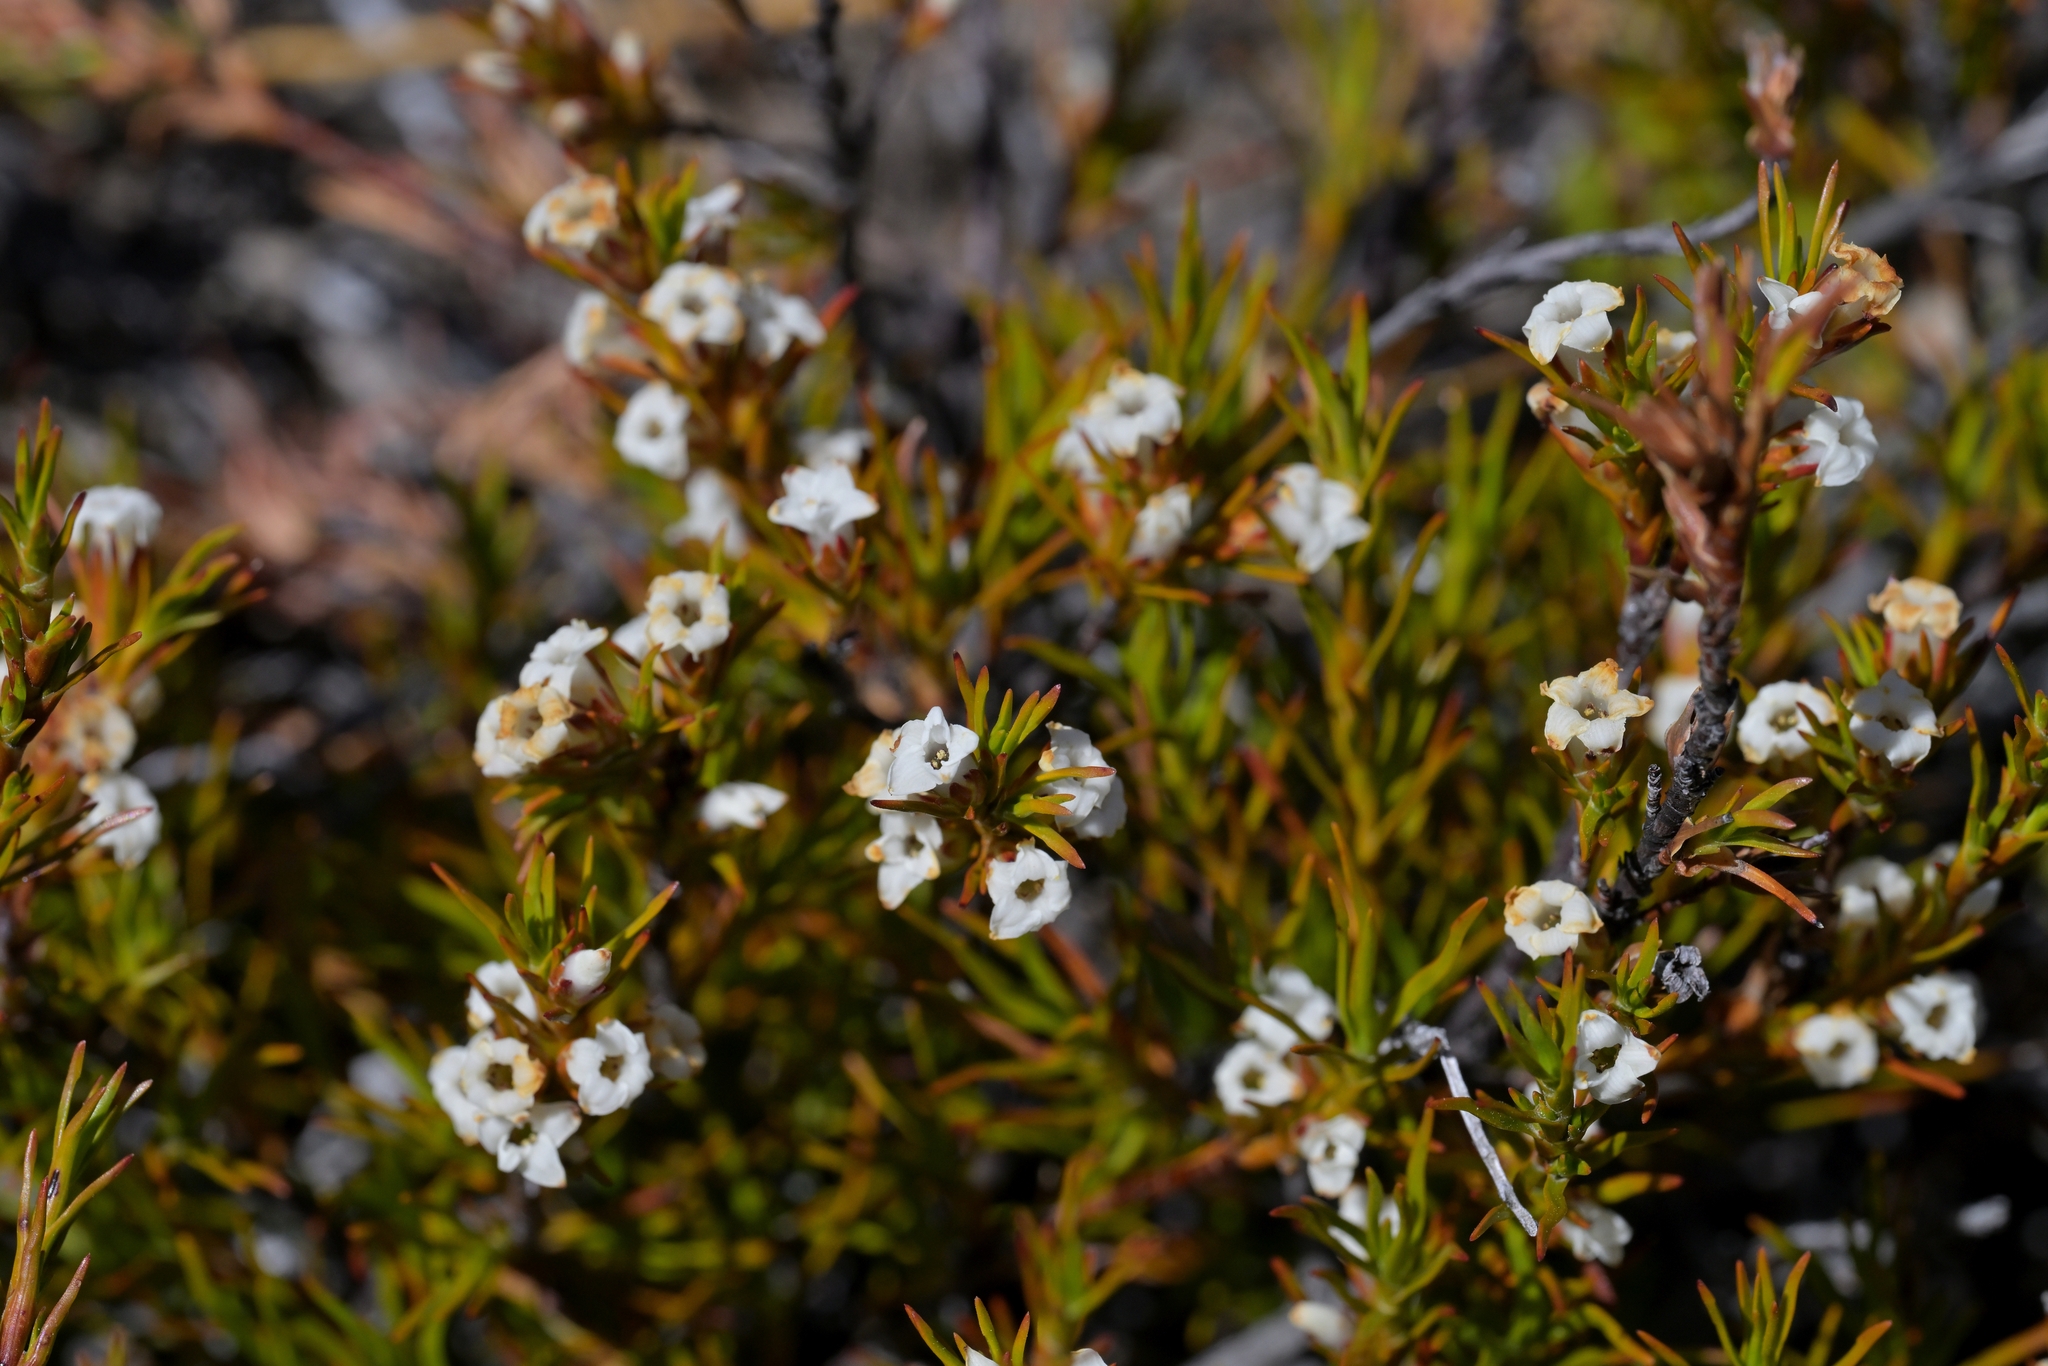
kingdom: Plantae
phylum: Tracheophyta
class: Magnoliopsida
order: Ericales
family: Ericaceae
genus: Dracophyllum
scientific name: Dracophyllum rosmarinifolium
